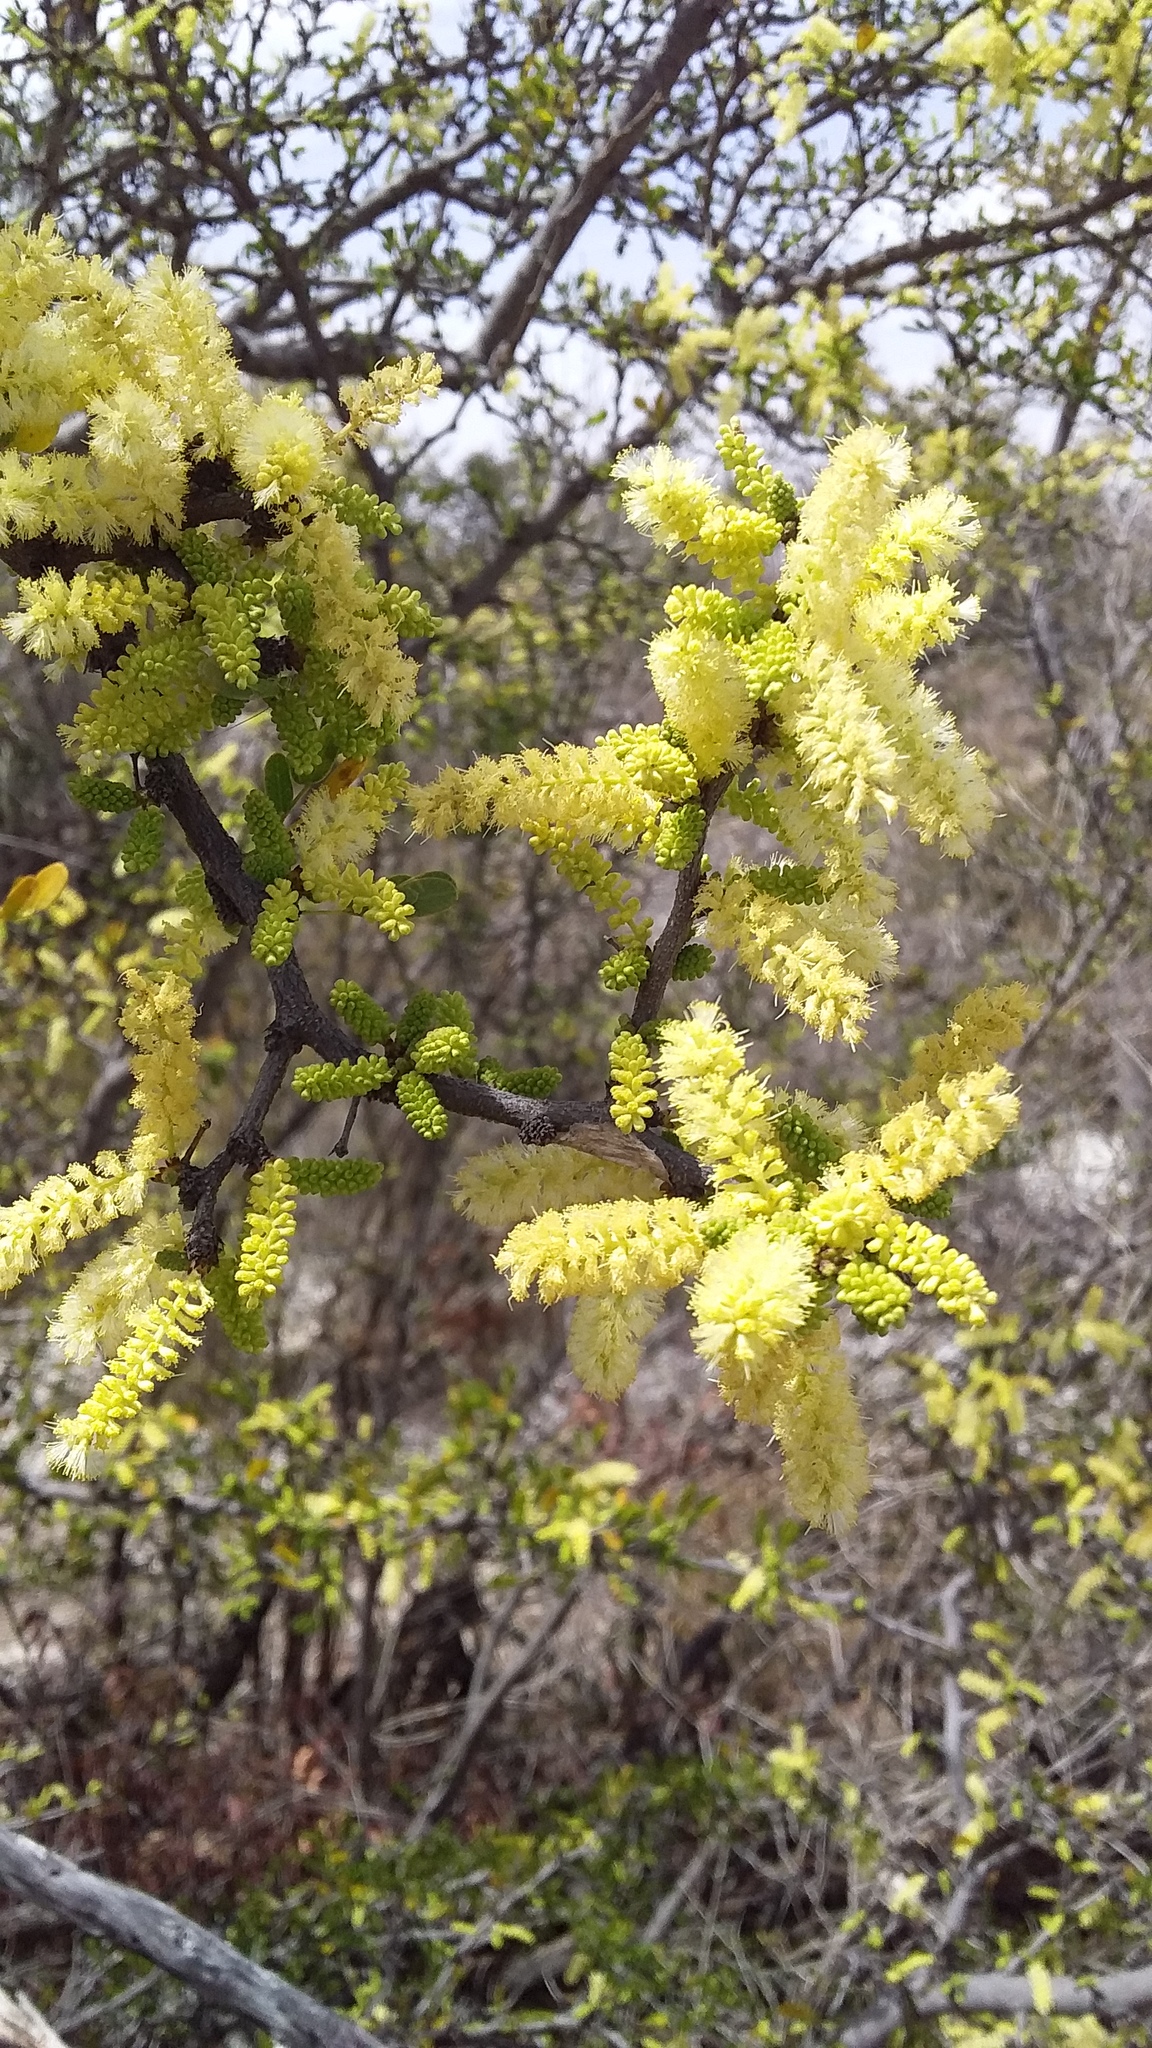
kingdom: Plantae
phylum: Tracheophyta
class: Magnoliopsida
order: Fabales
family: Fabaceae
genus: Vachellia
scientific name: Vachellia rigidula
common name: Blackbrush
